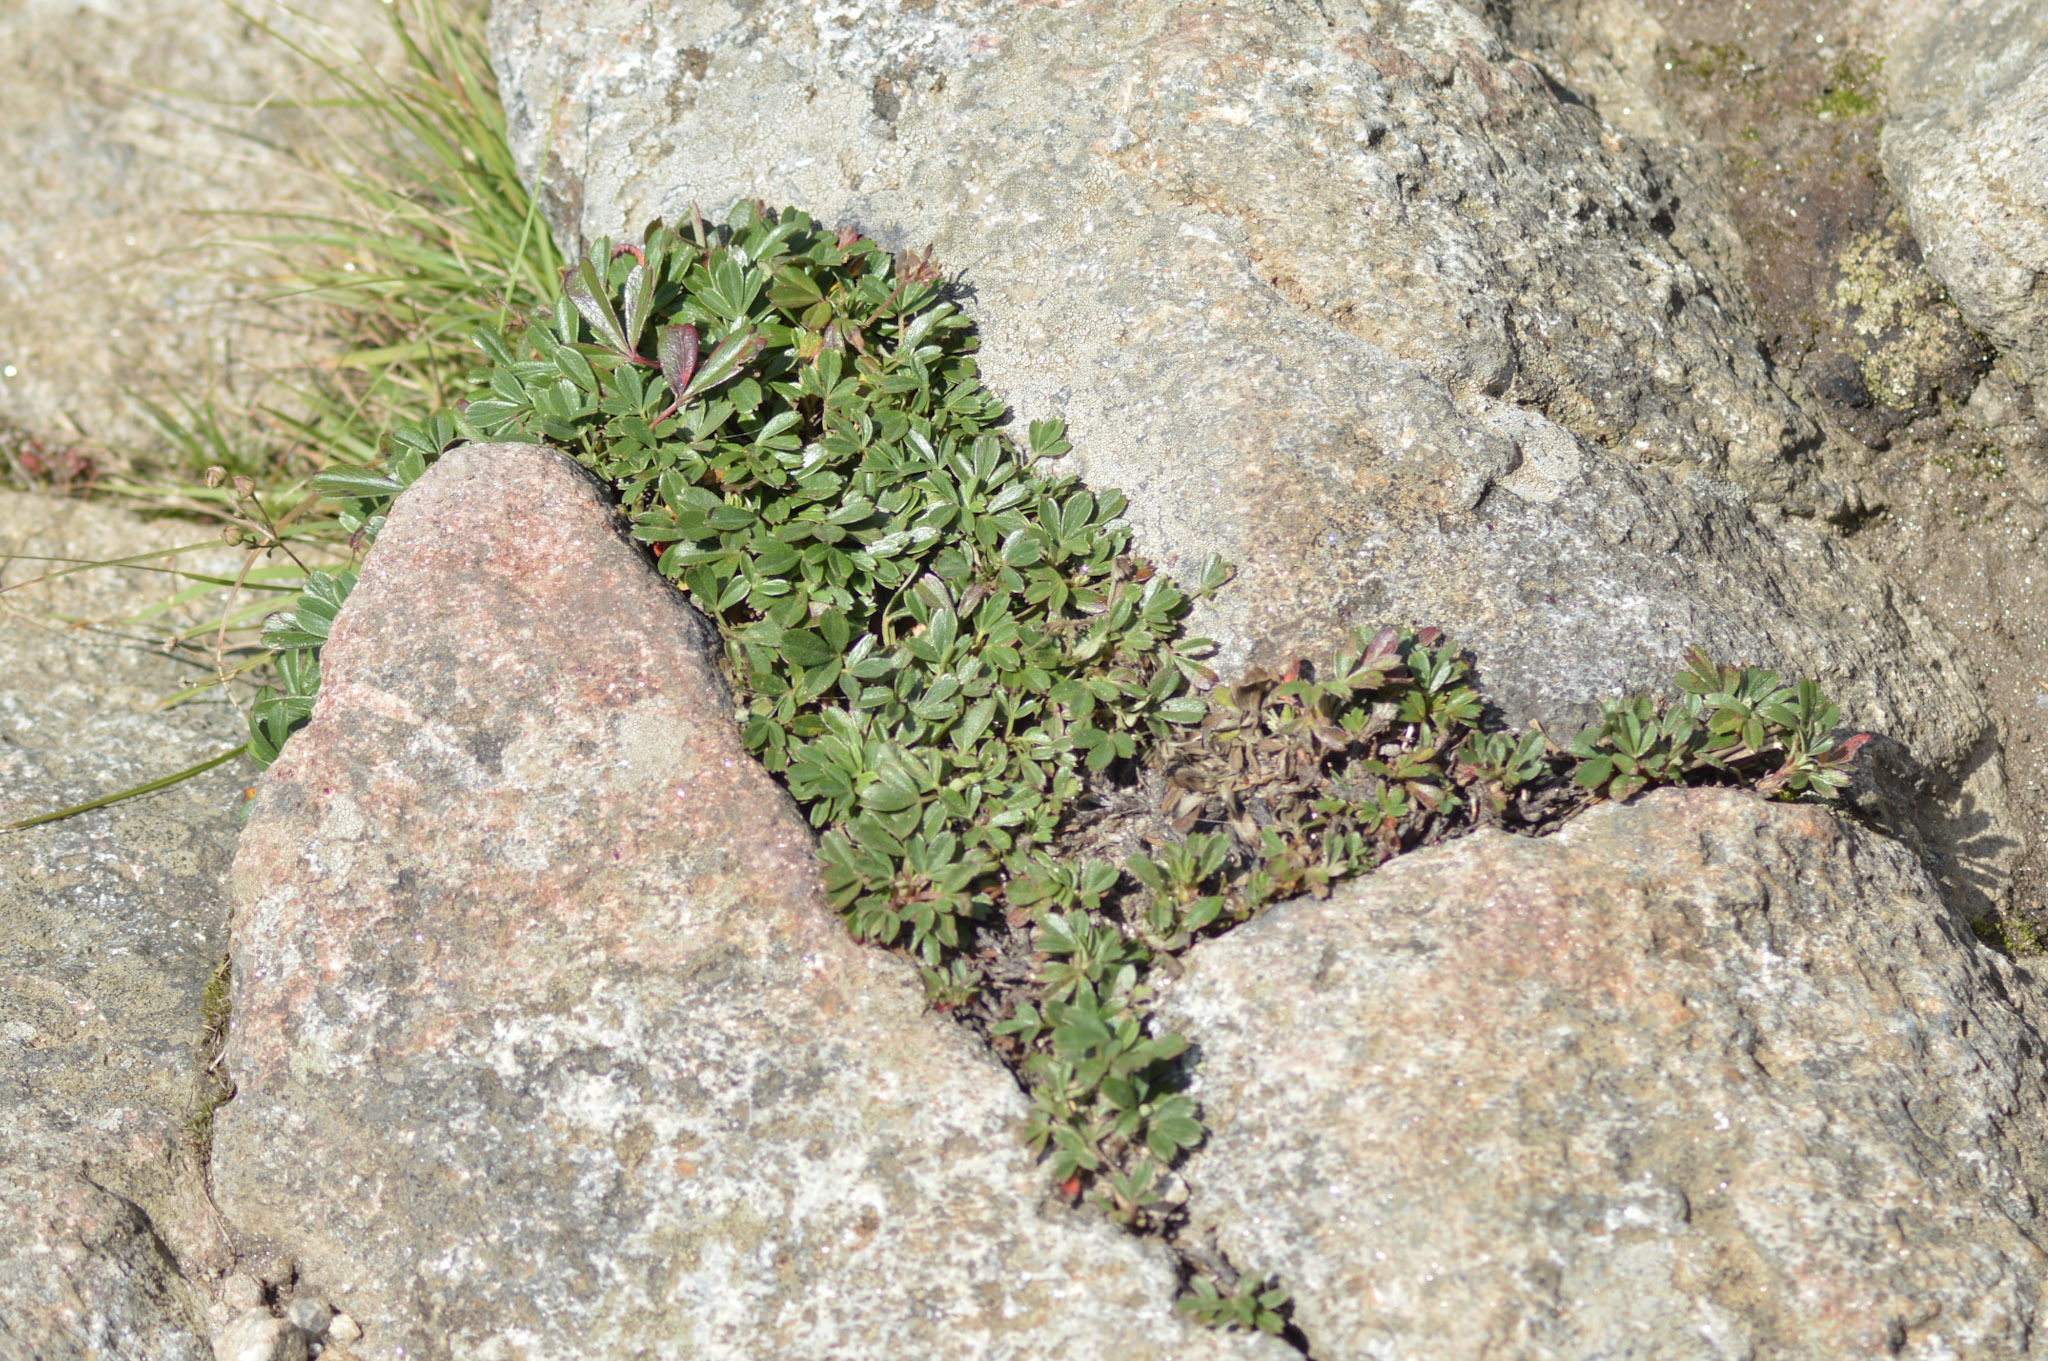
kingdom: Plantae
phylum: Tracheophyta
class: Magnoliopsida
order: Rosales
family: Rosaceae
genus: Sibbaldia
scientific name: Sibbaldia tridentata
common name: Three-toothed cinquefoil
